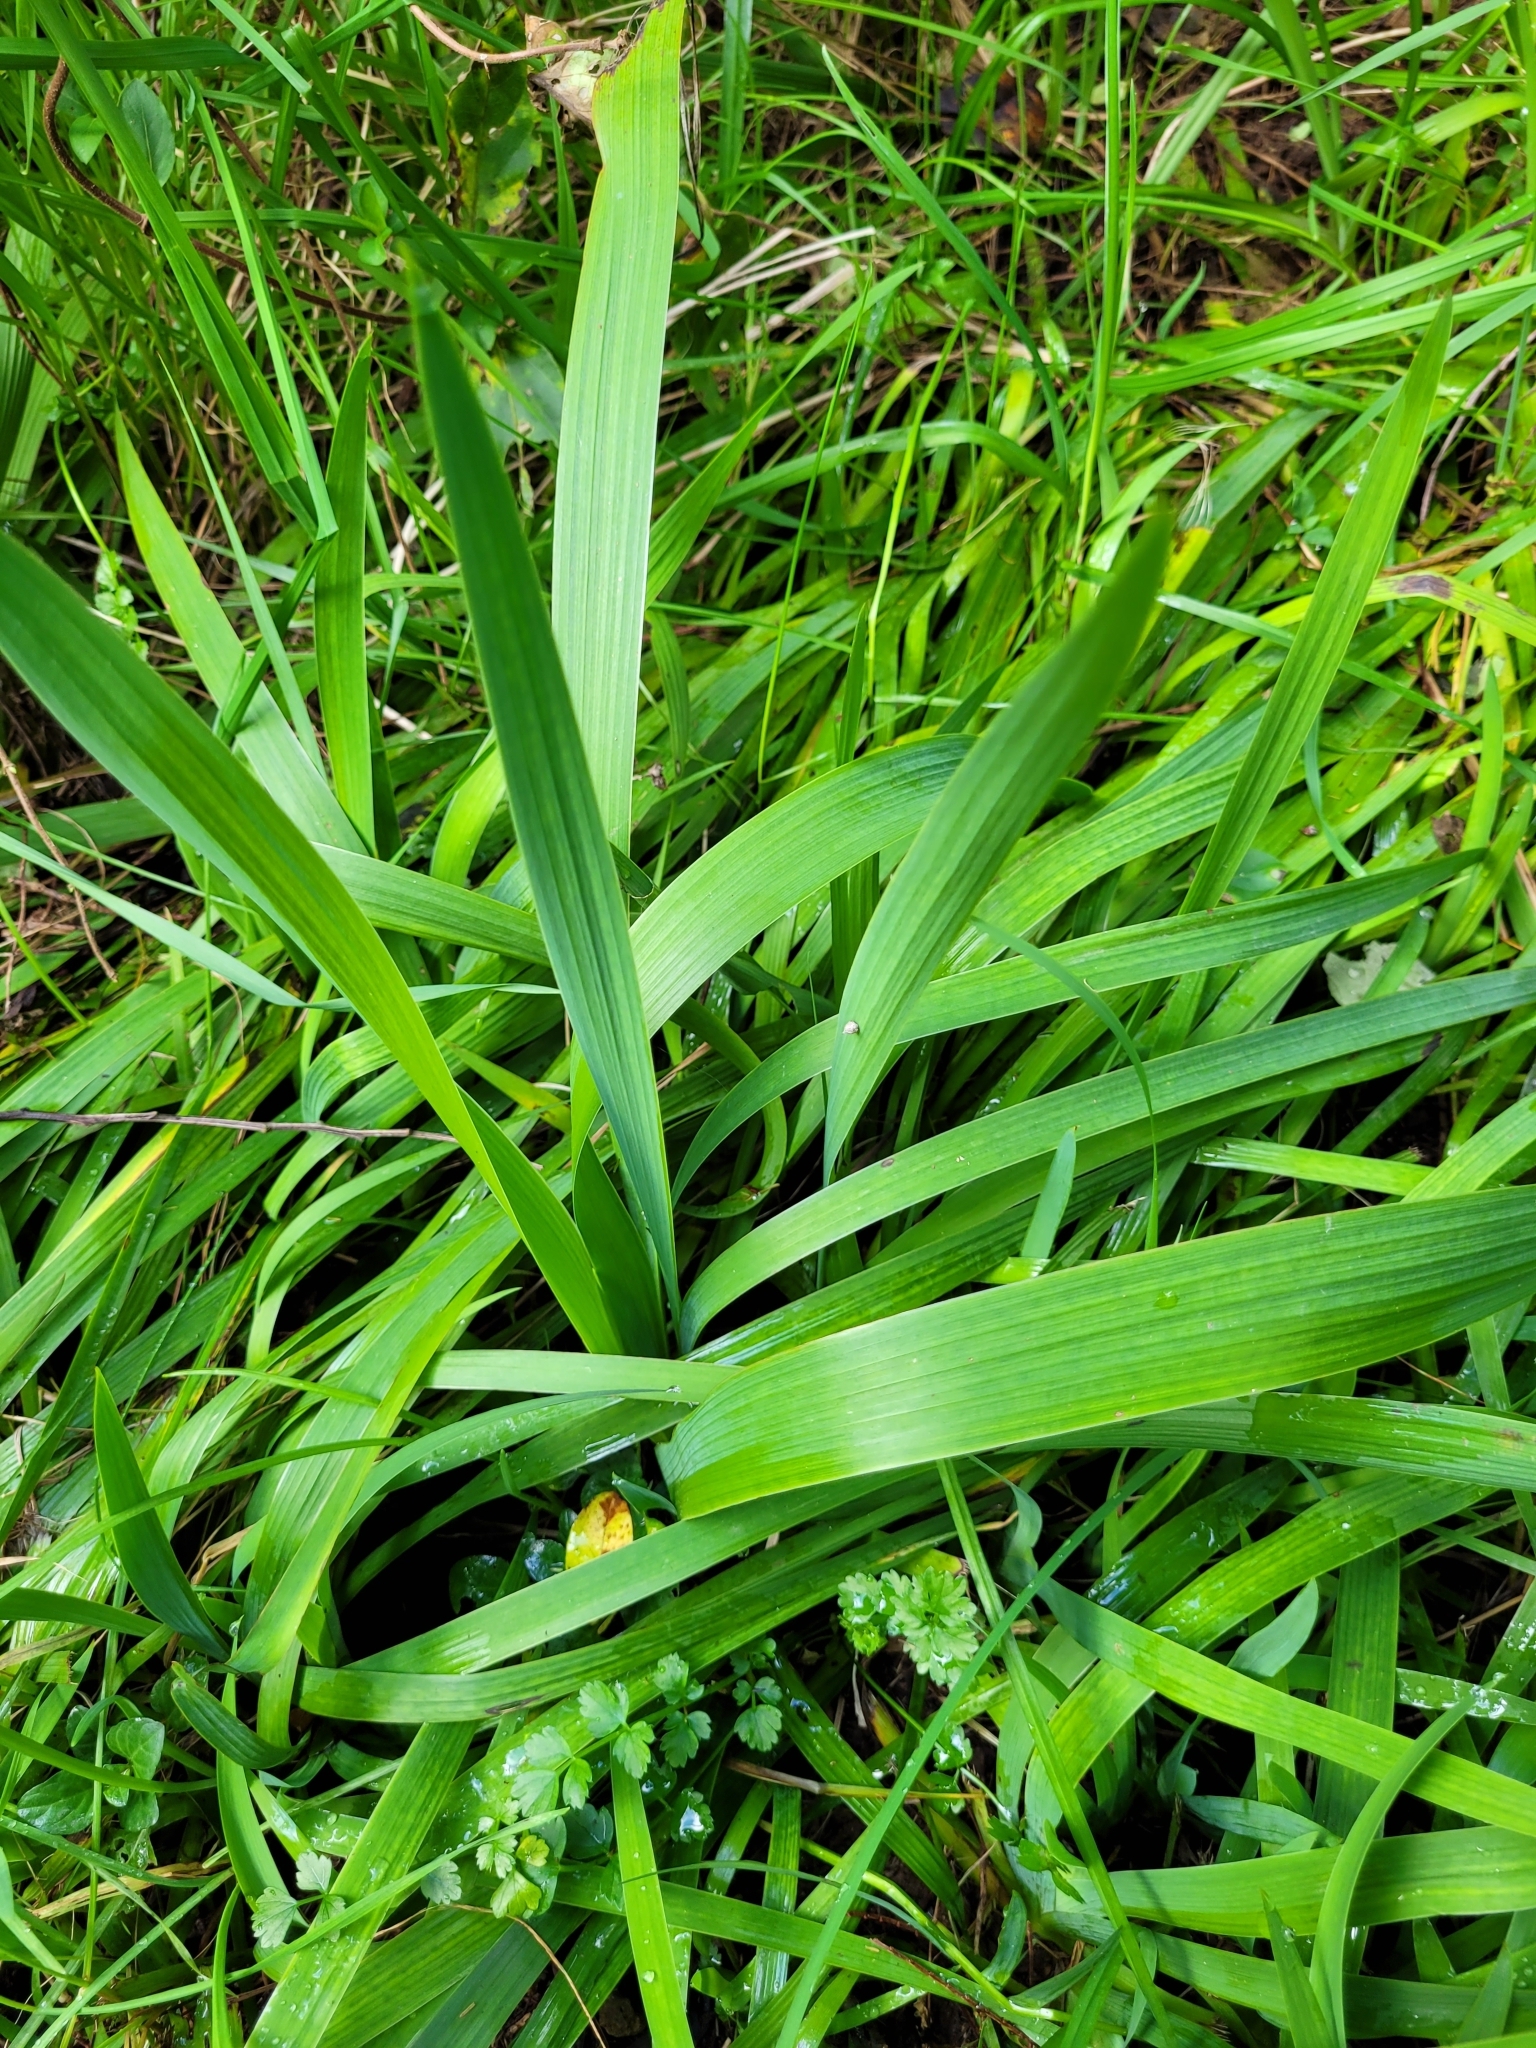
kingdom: Plantae
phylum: Tracheophyta
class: Liliopsida
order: Asparagales
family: Iridaceae
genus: Aristea
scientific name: Aristea ecklonii
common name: Blue corn-lily
